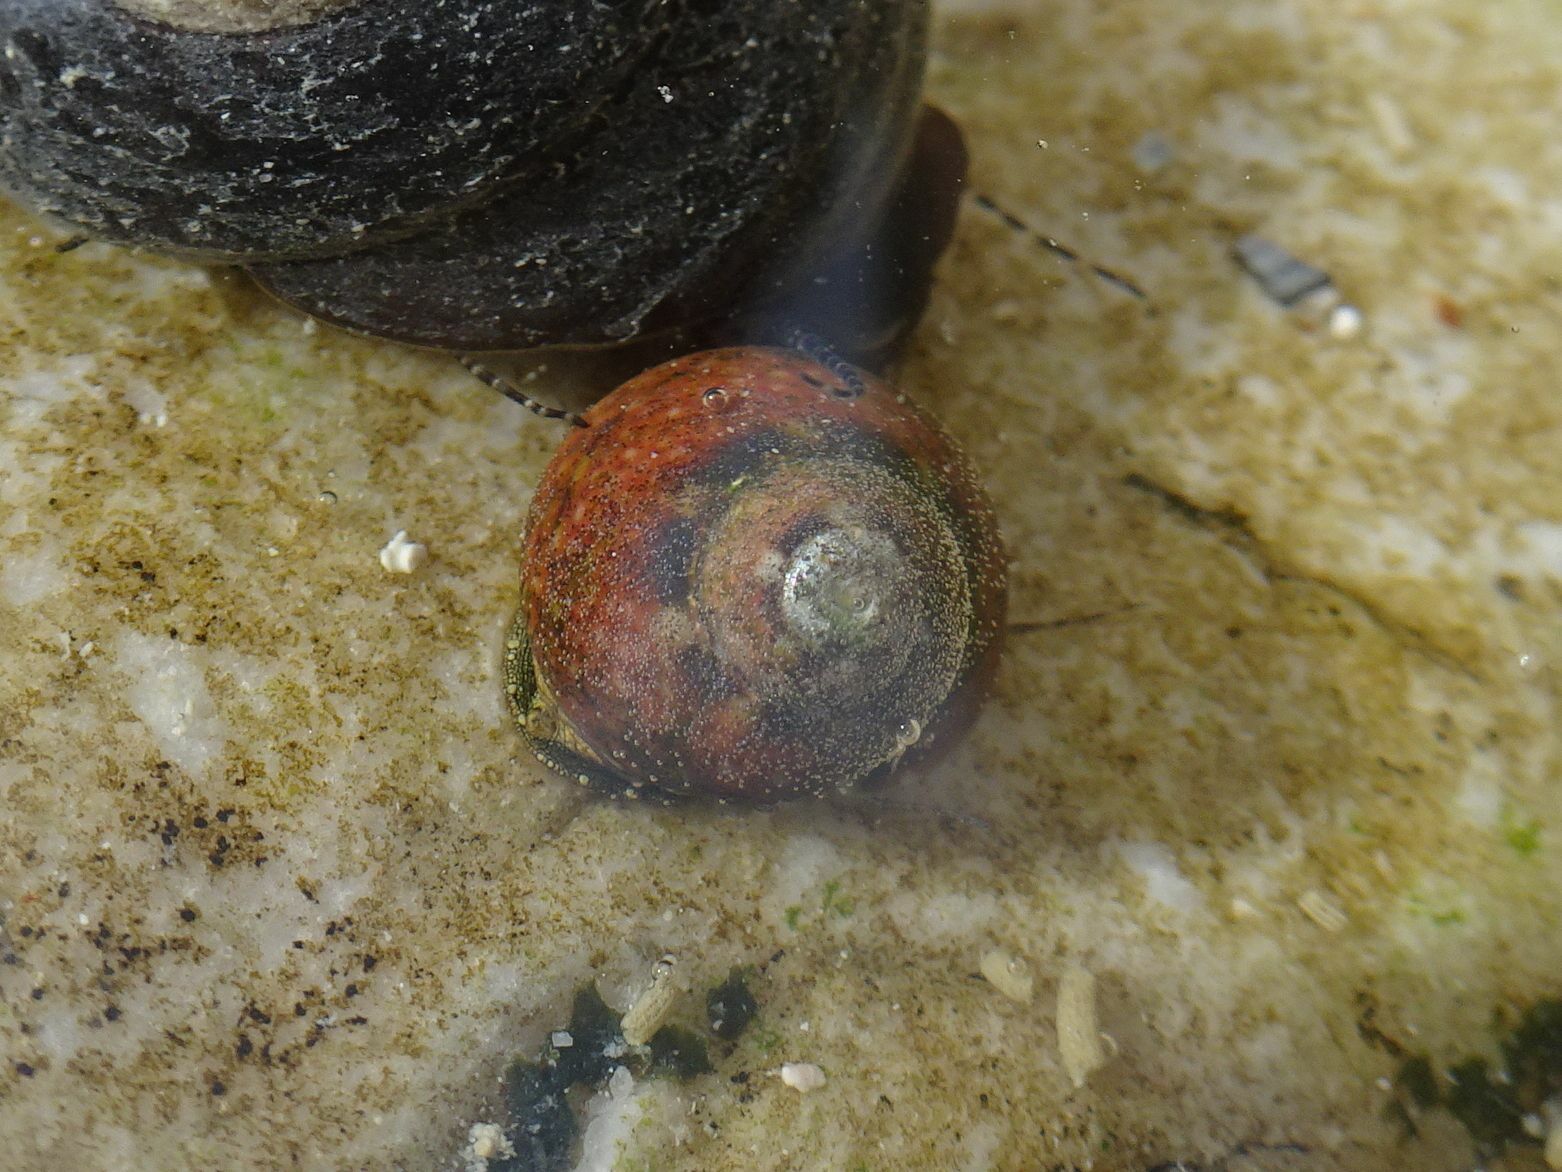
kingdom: Animalia
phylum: Mollusca
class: Gastropoda
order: Trochida
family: Trochidae
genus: Oxystele
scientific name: Oxystele impervia
